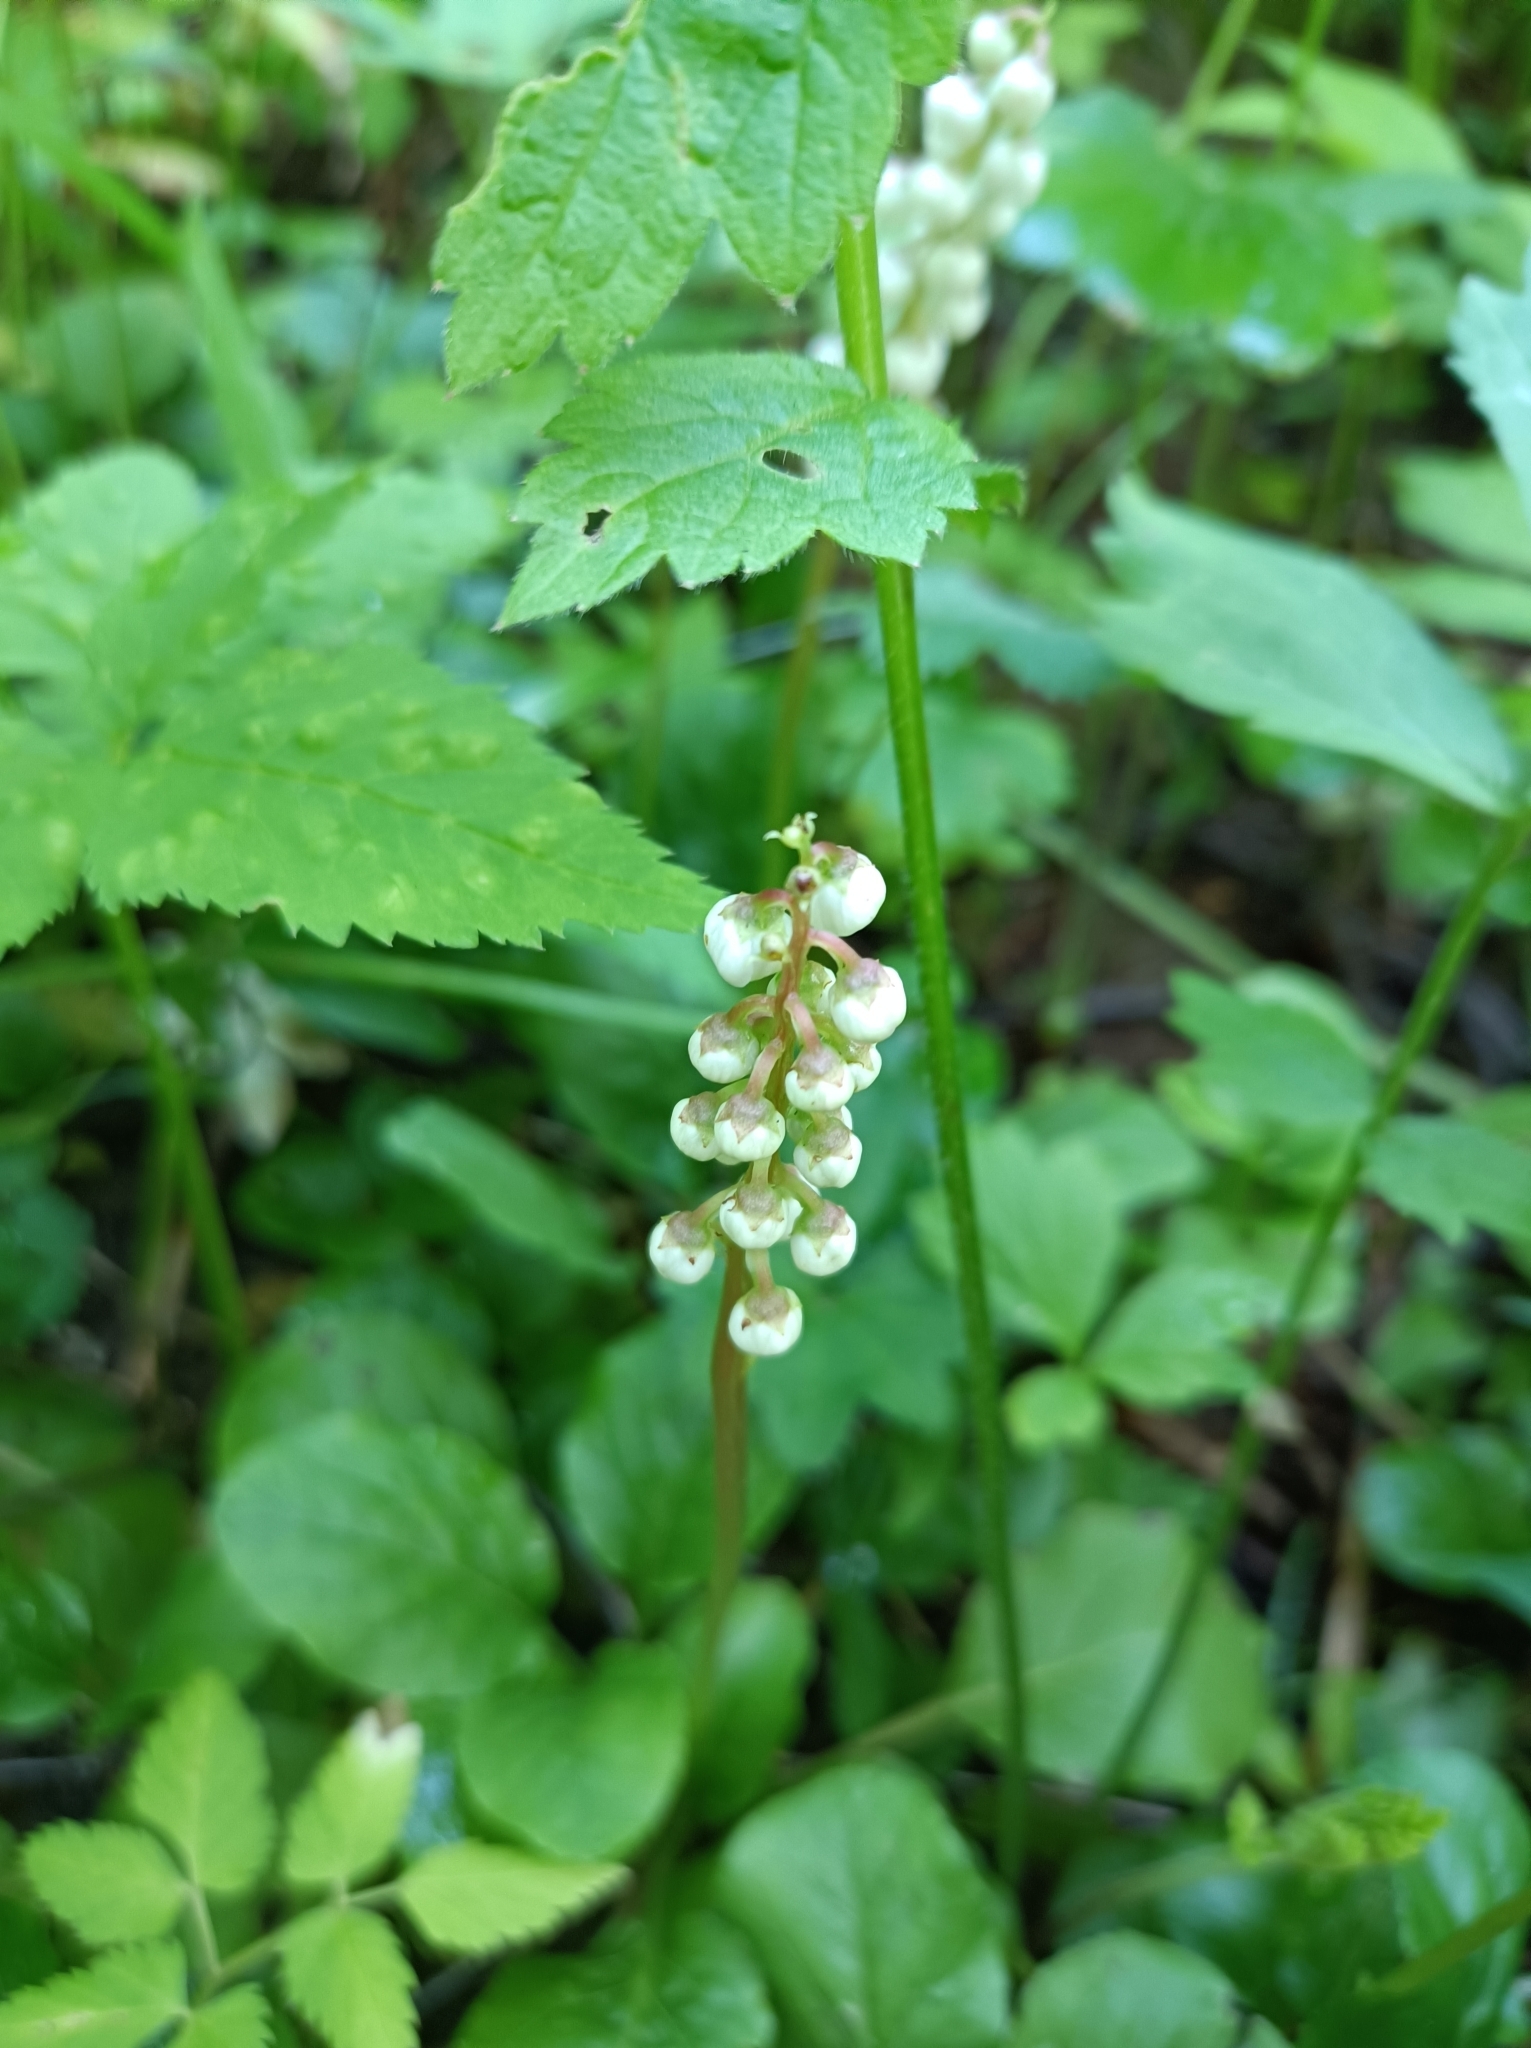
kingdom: Plantae
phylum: Tracheophyta
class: Magnoliopsida
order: Ericales
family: Ericaceae
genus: Pyrola
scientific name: Pyrola minor
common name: Common wintergreen
